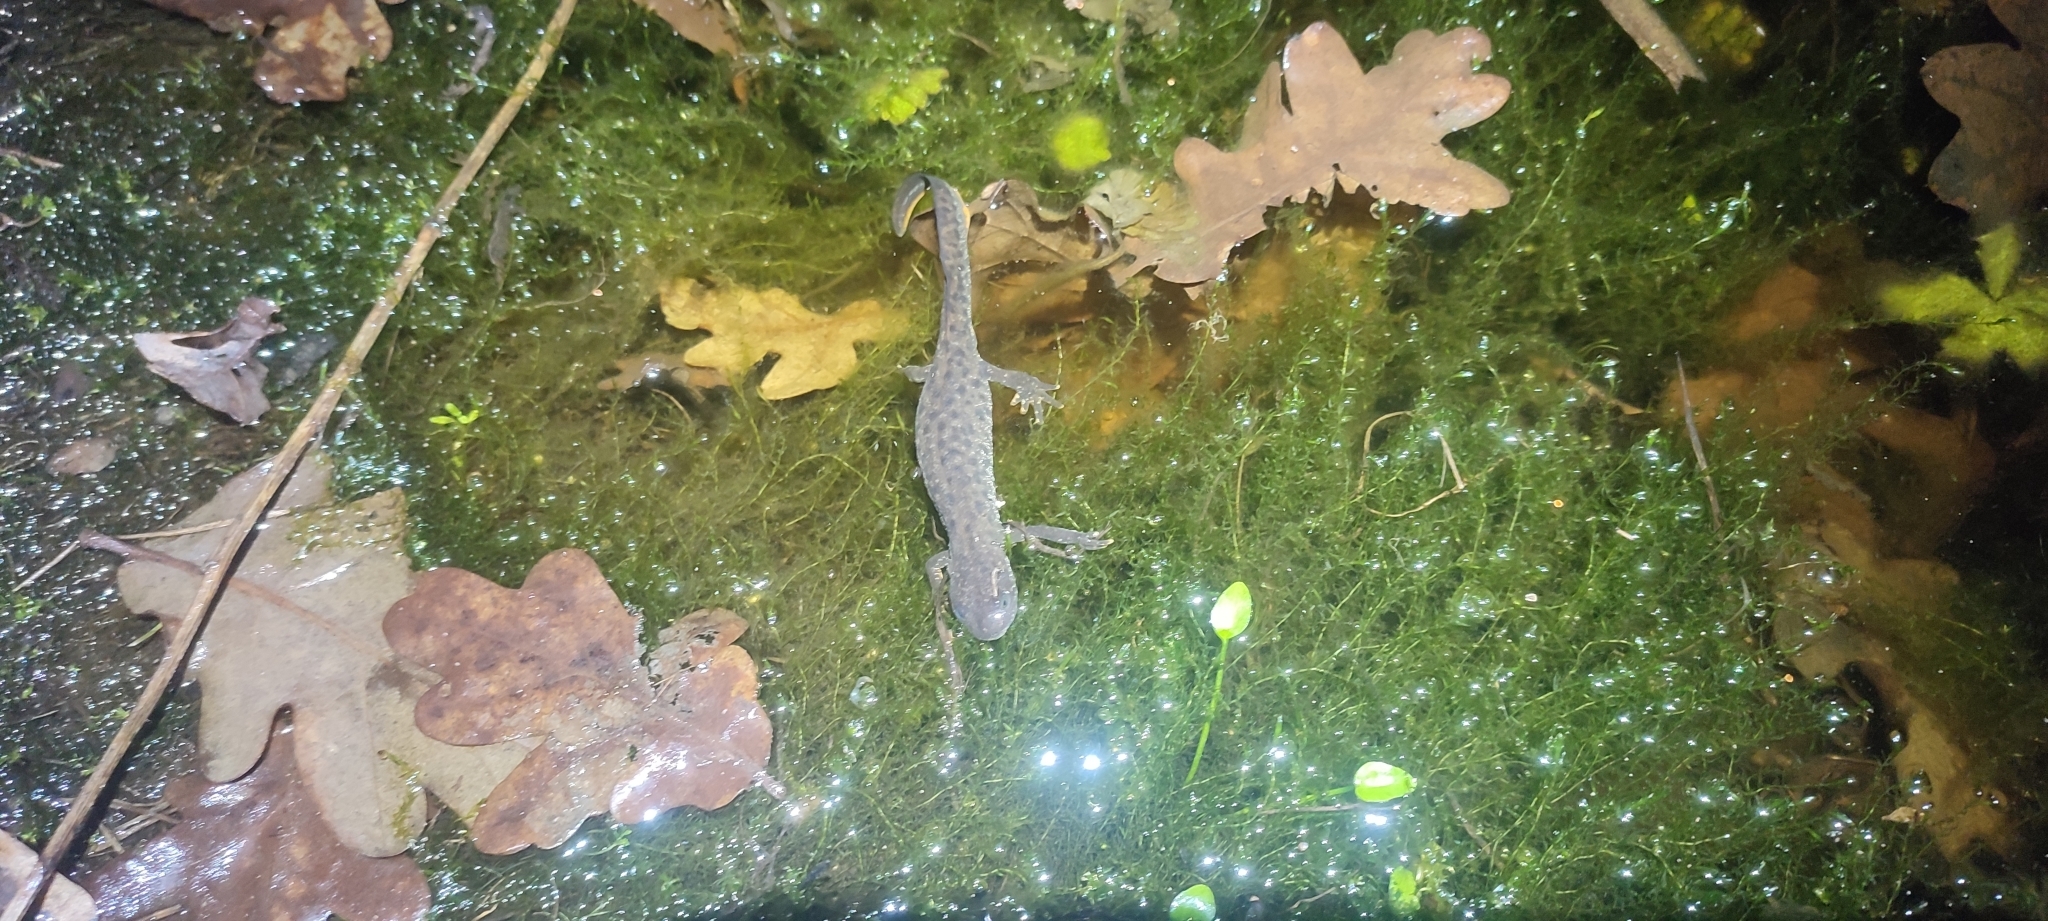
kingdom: Animalia
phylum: Chordata
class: Amphibia
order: Caudata
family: Salamandridae
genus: Triturus
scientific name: Triturus cristatus
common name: Crested newt
